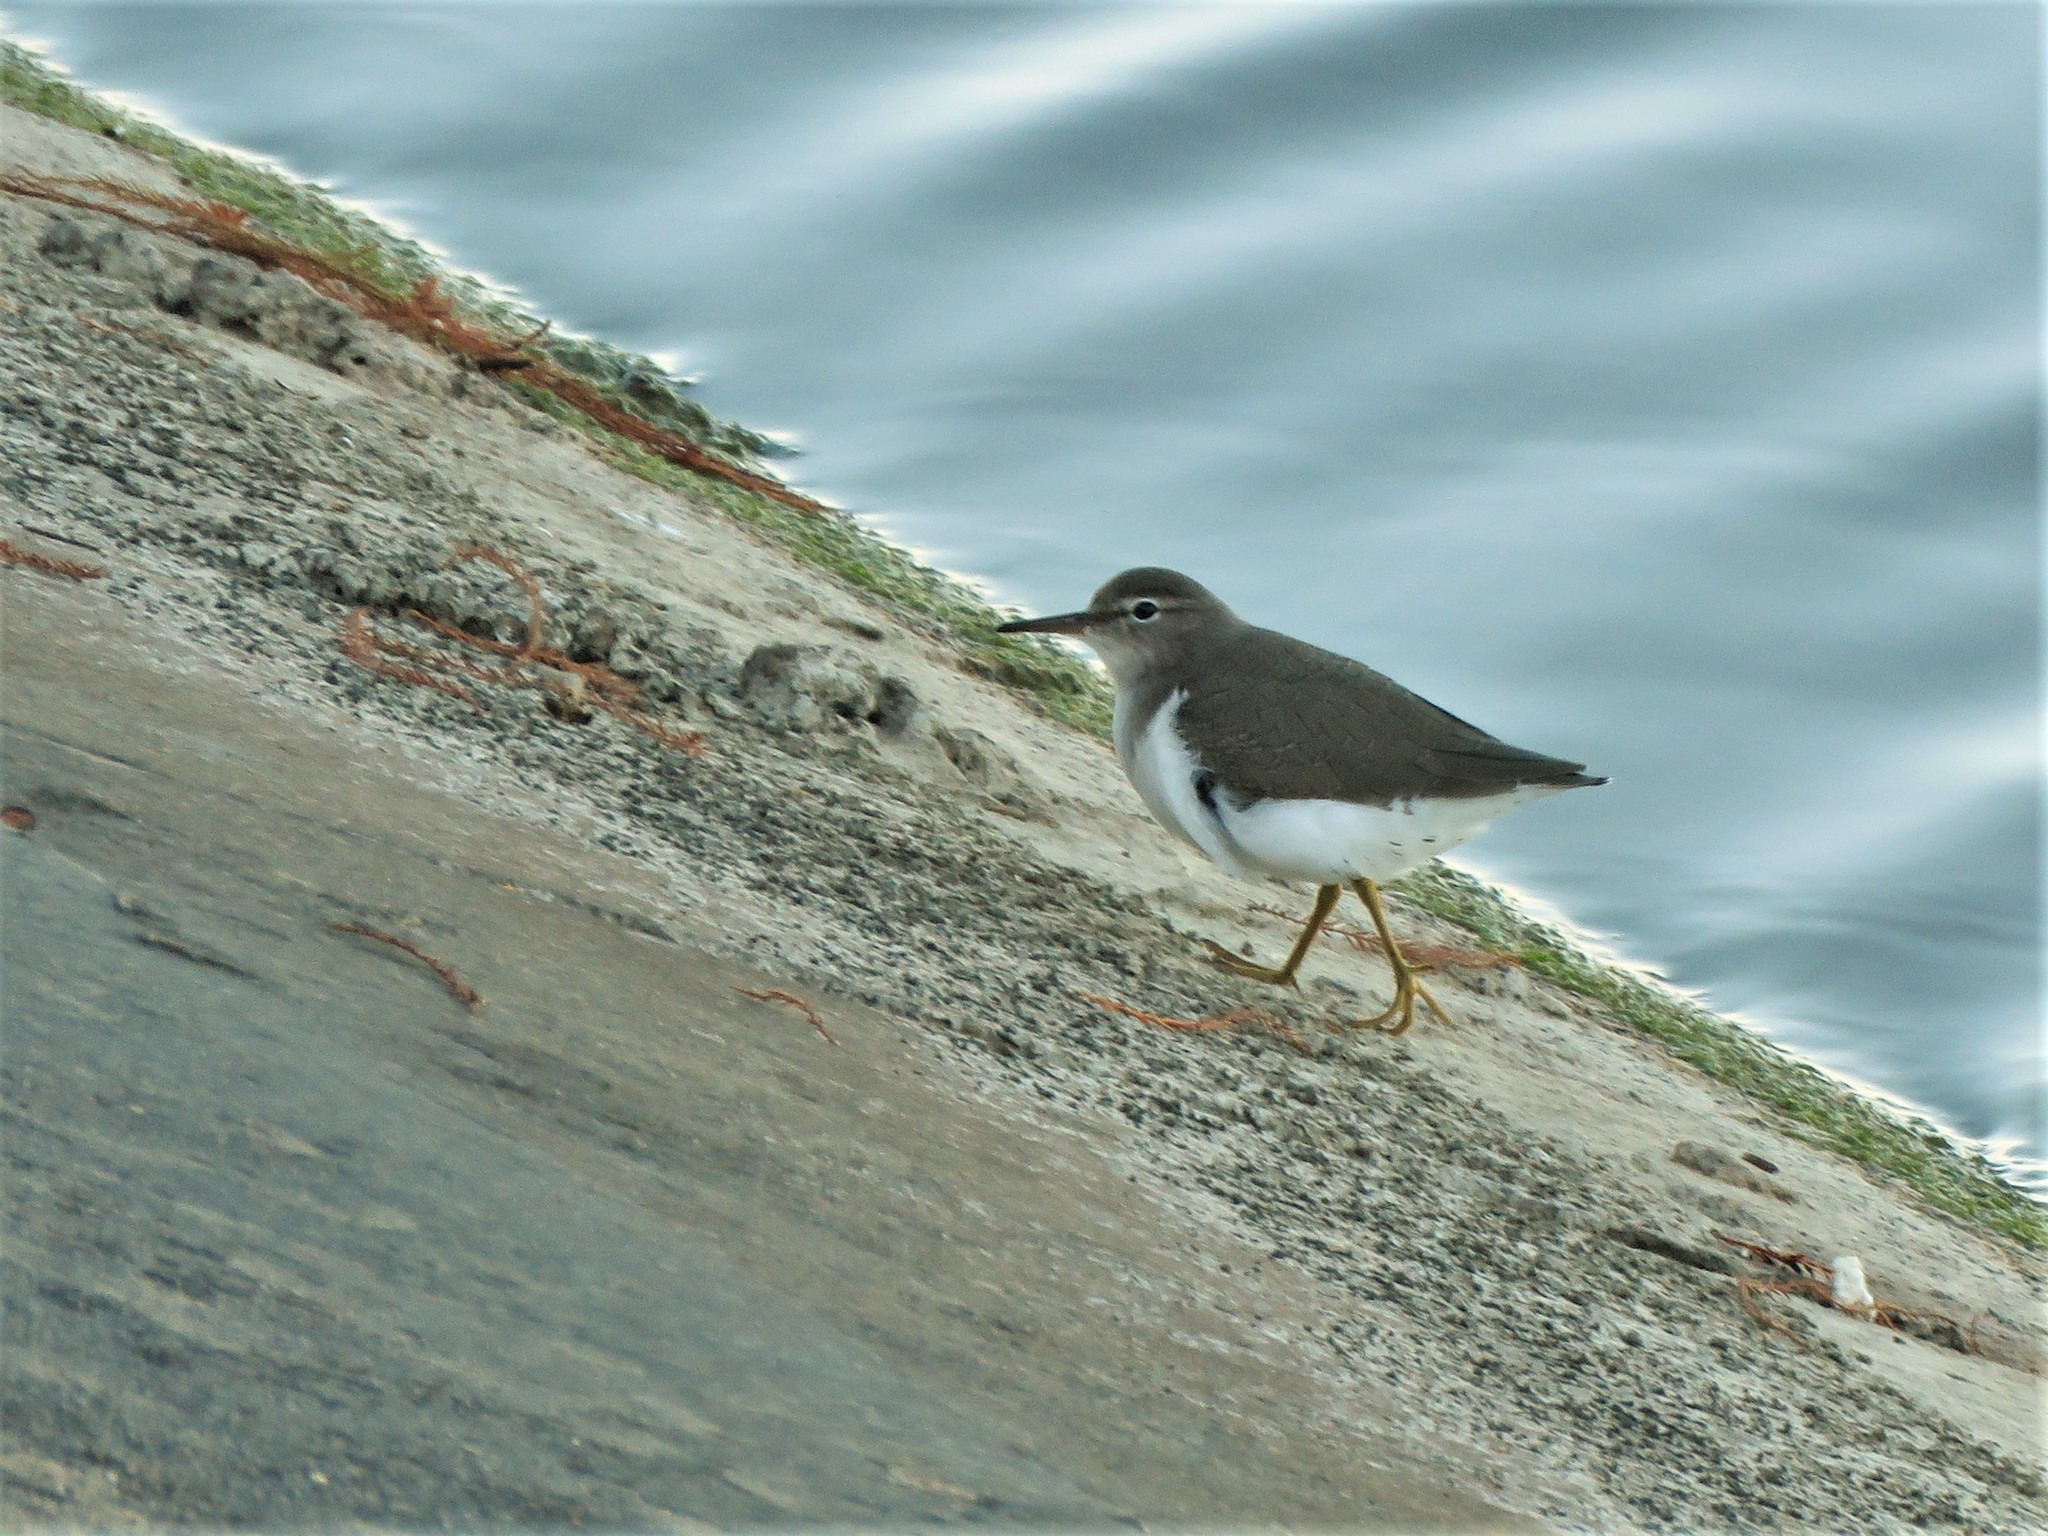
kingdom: Animalia
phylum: Chordata
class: Aves
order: Charadriiformes
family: Scolopacidae
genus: Actitis
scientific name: Actitis macularius
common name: Spotted sandpiper
